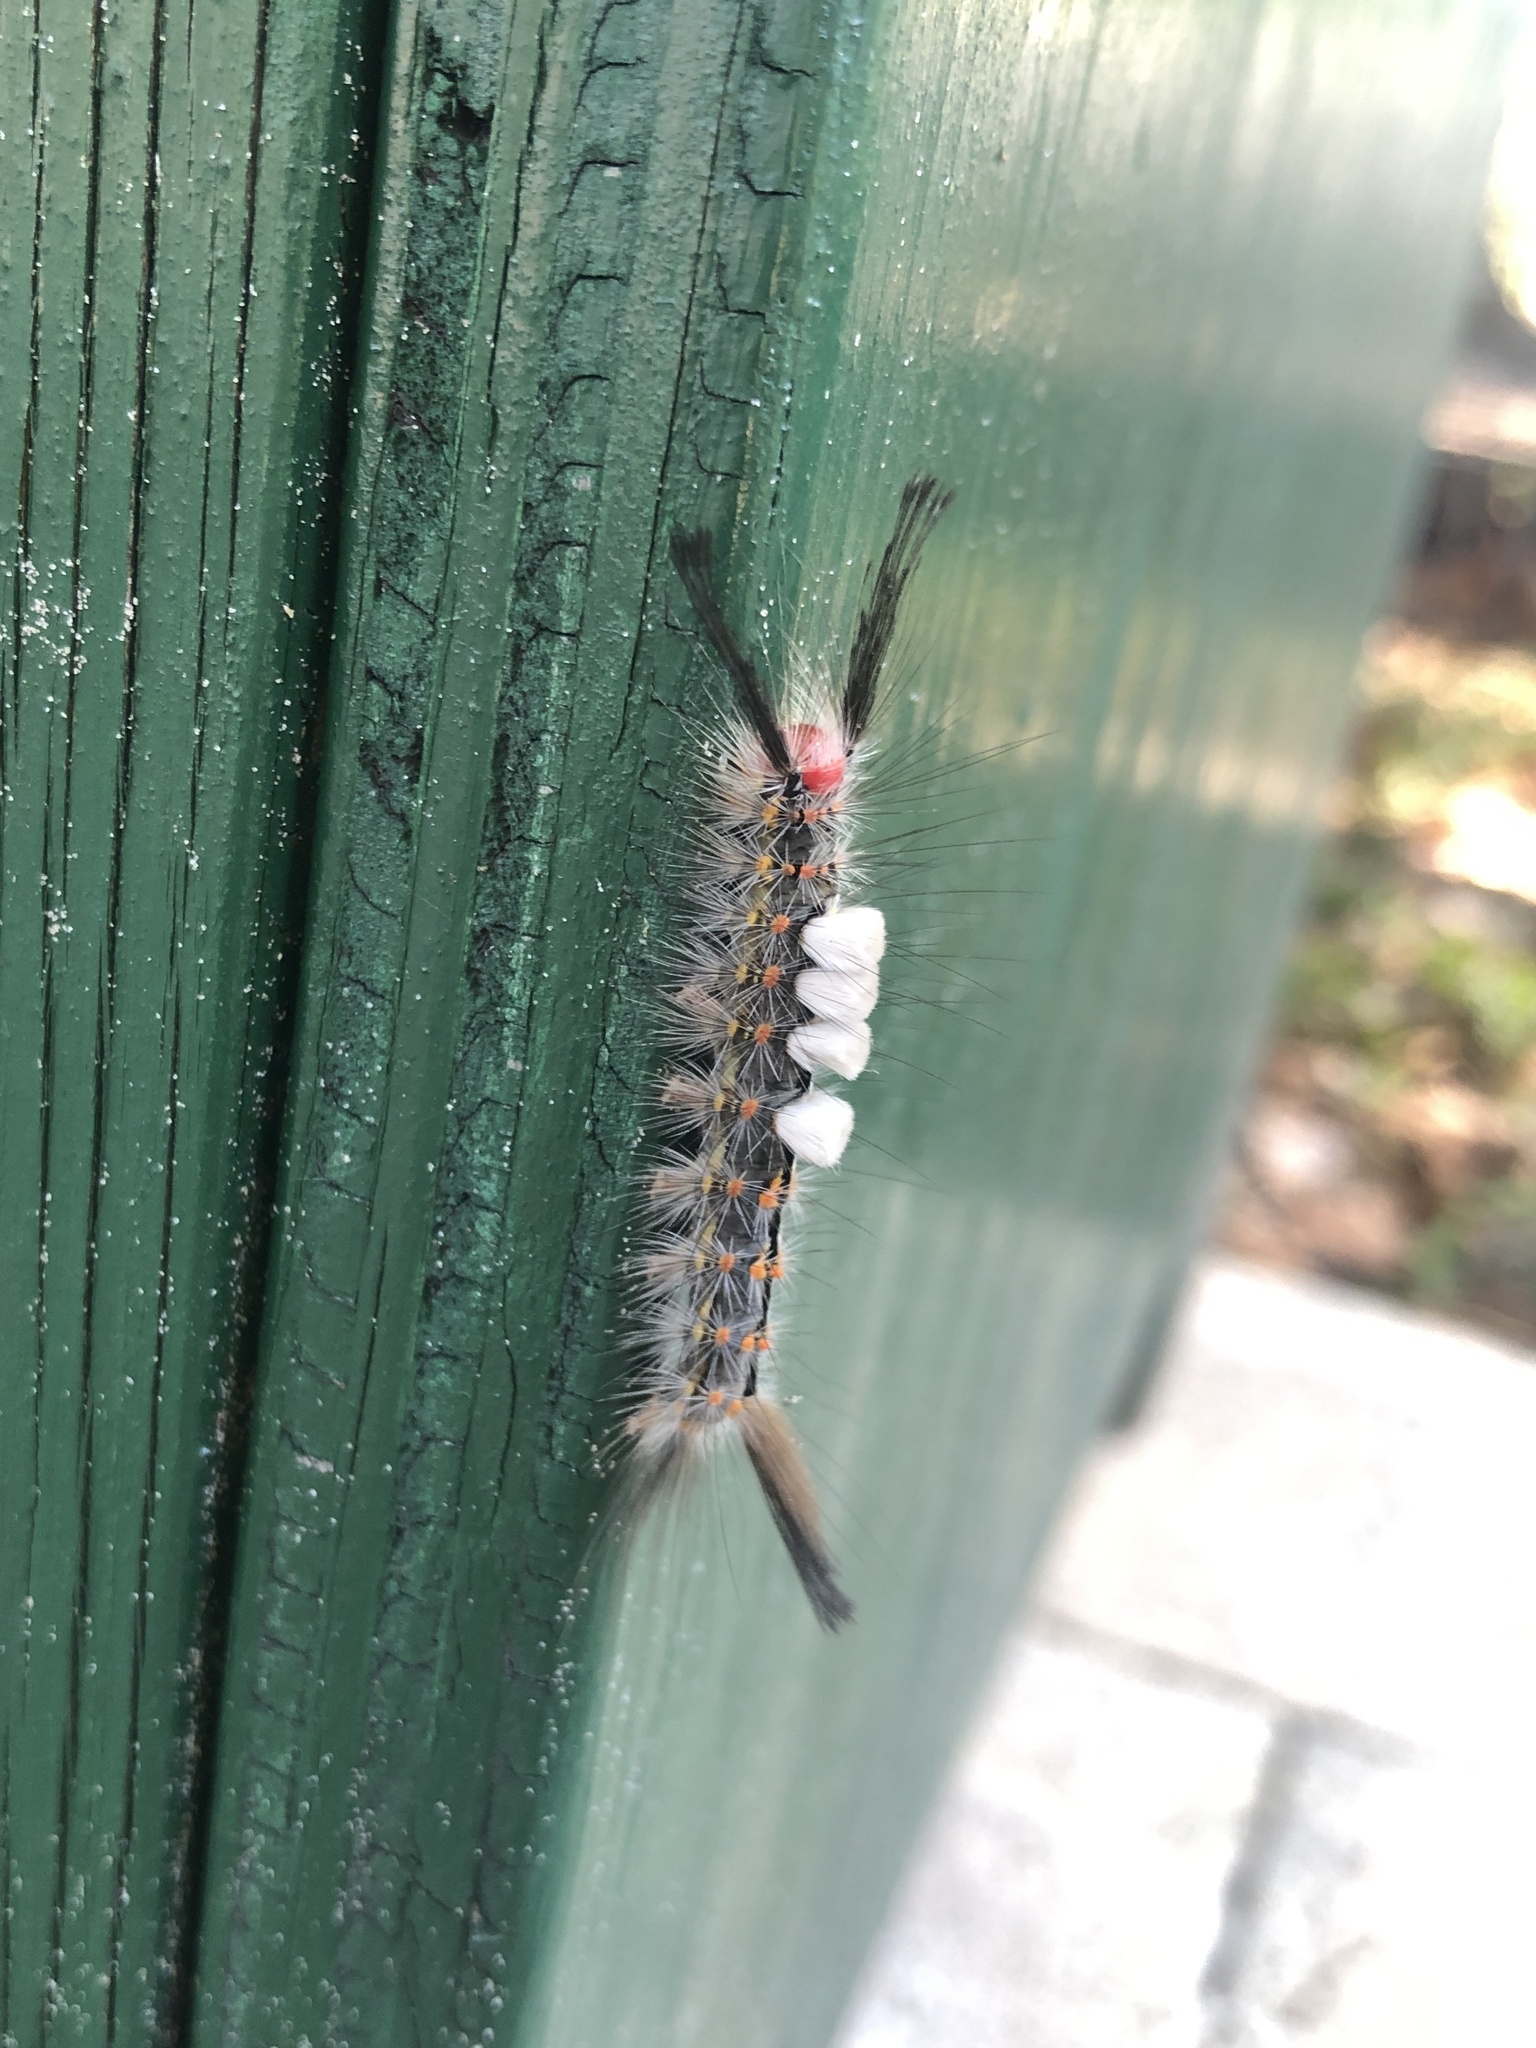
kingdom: Animalia
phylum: Arthropoda
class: Insecta
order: Lepidoptera
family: Erebidae
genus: Orgyia
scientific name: Orgyia detrita
